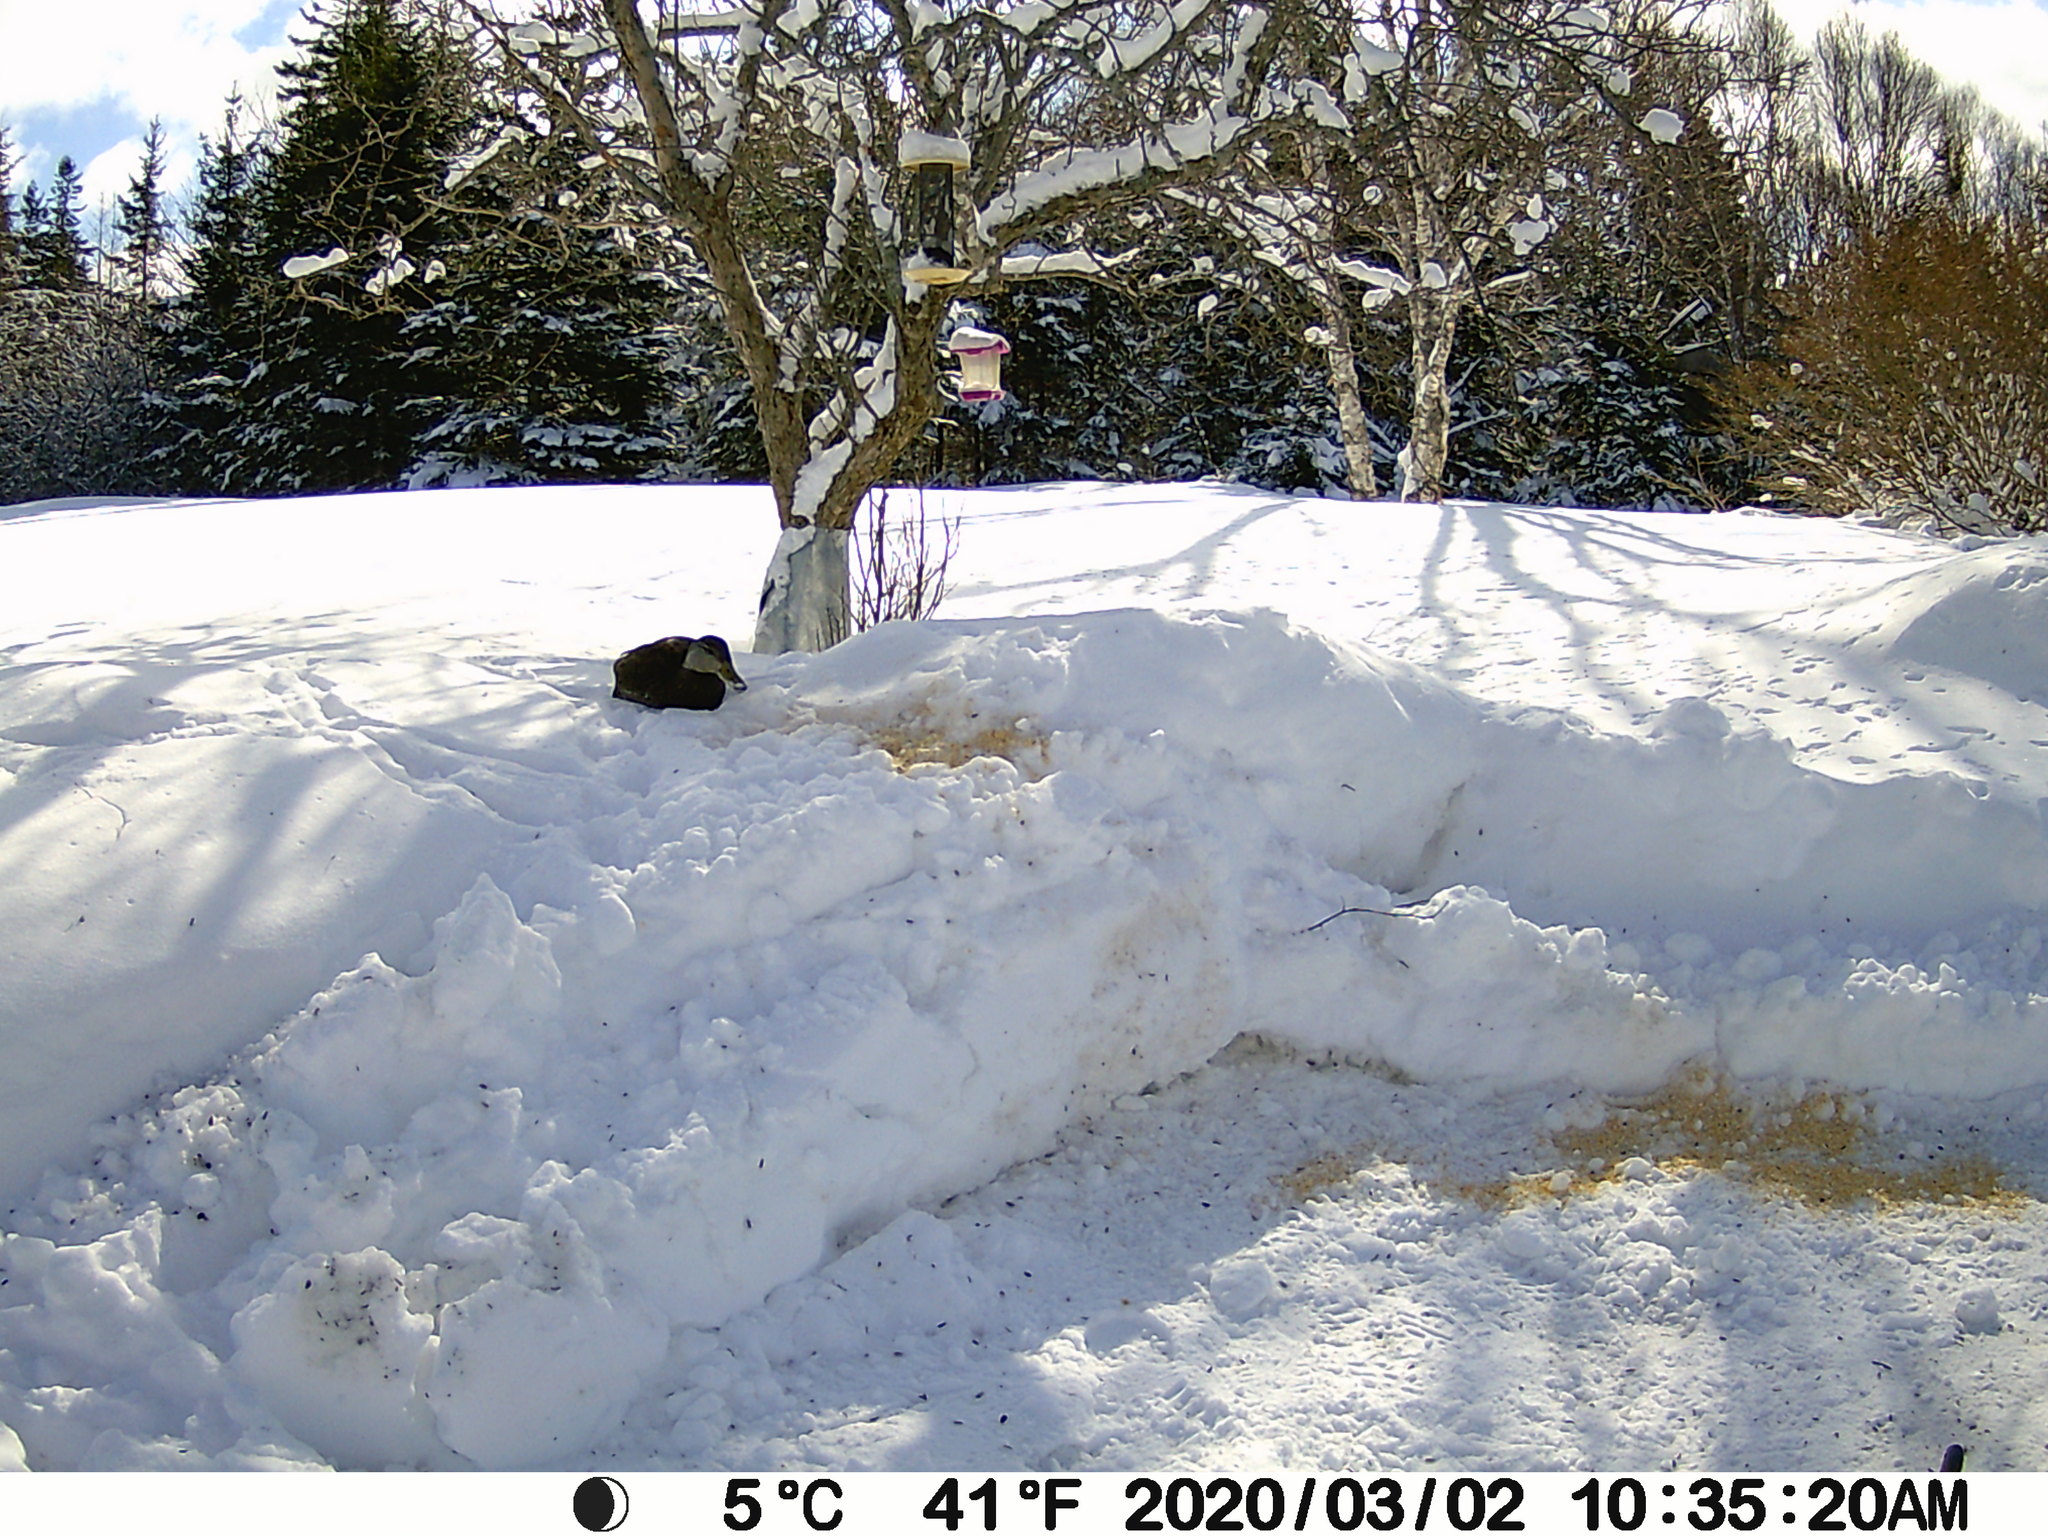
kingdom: Animalia
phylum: Chordata
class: Aves
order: Anseriformes
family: Anatidae
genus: Anas
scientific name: Anas rubripes
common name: American black duck
